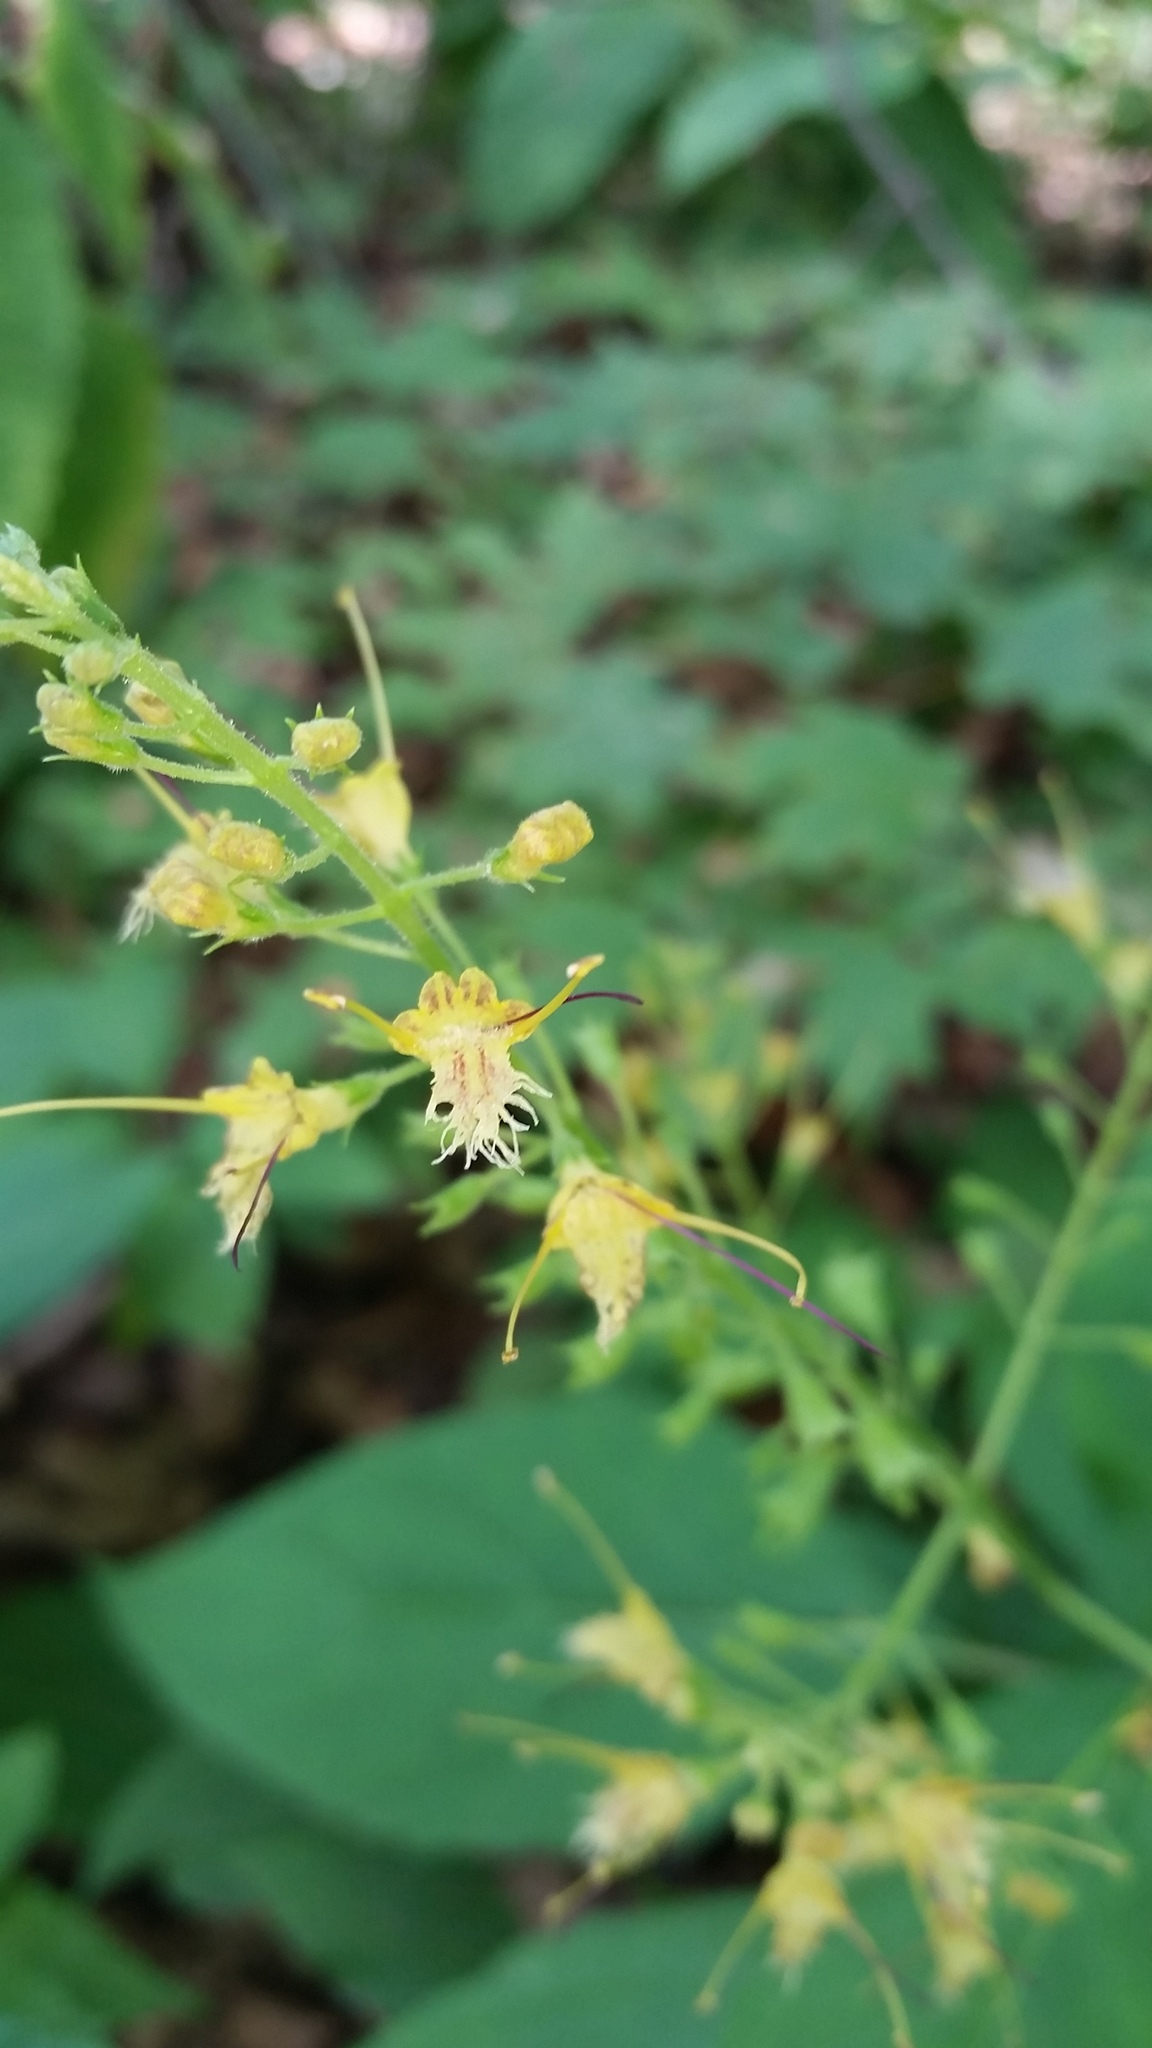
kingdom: Plantae
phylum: Tracheophyta
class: Magnoliopsida
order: Lamiales
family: Lamiaceae
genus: Collinsonia
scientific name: Collinsonia canadensis
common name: Northern horsebalm
